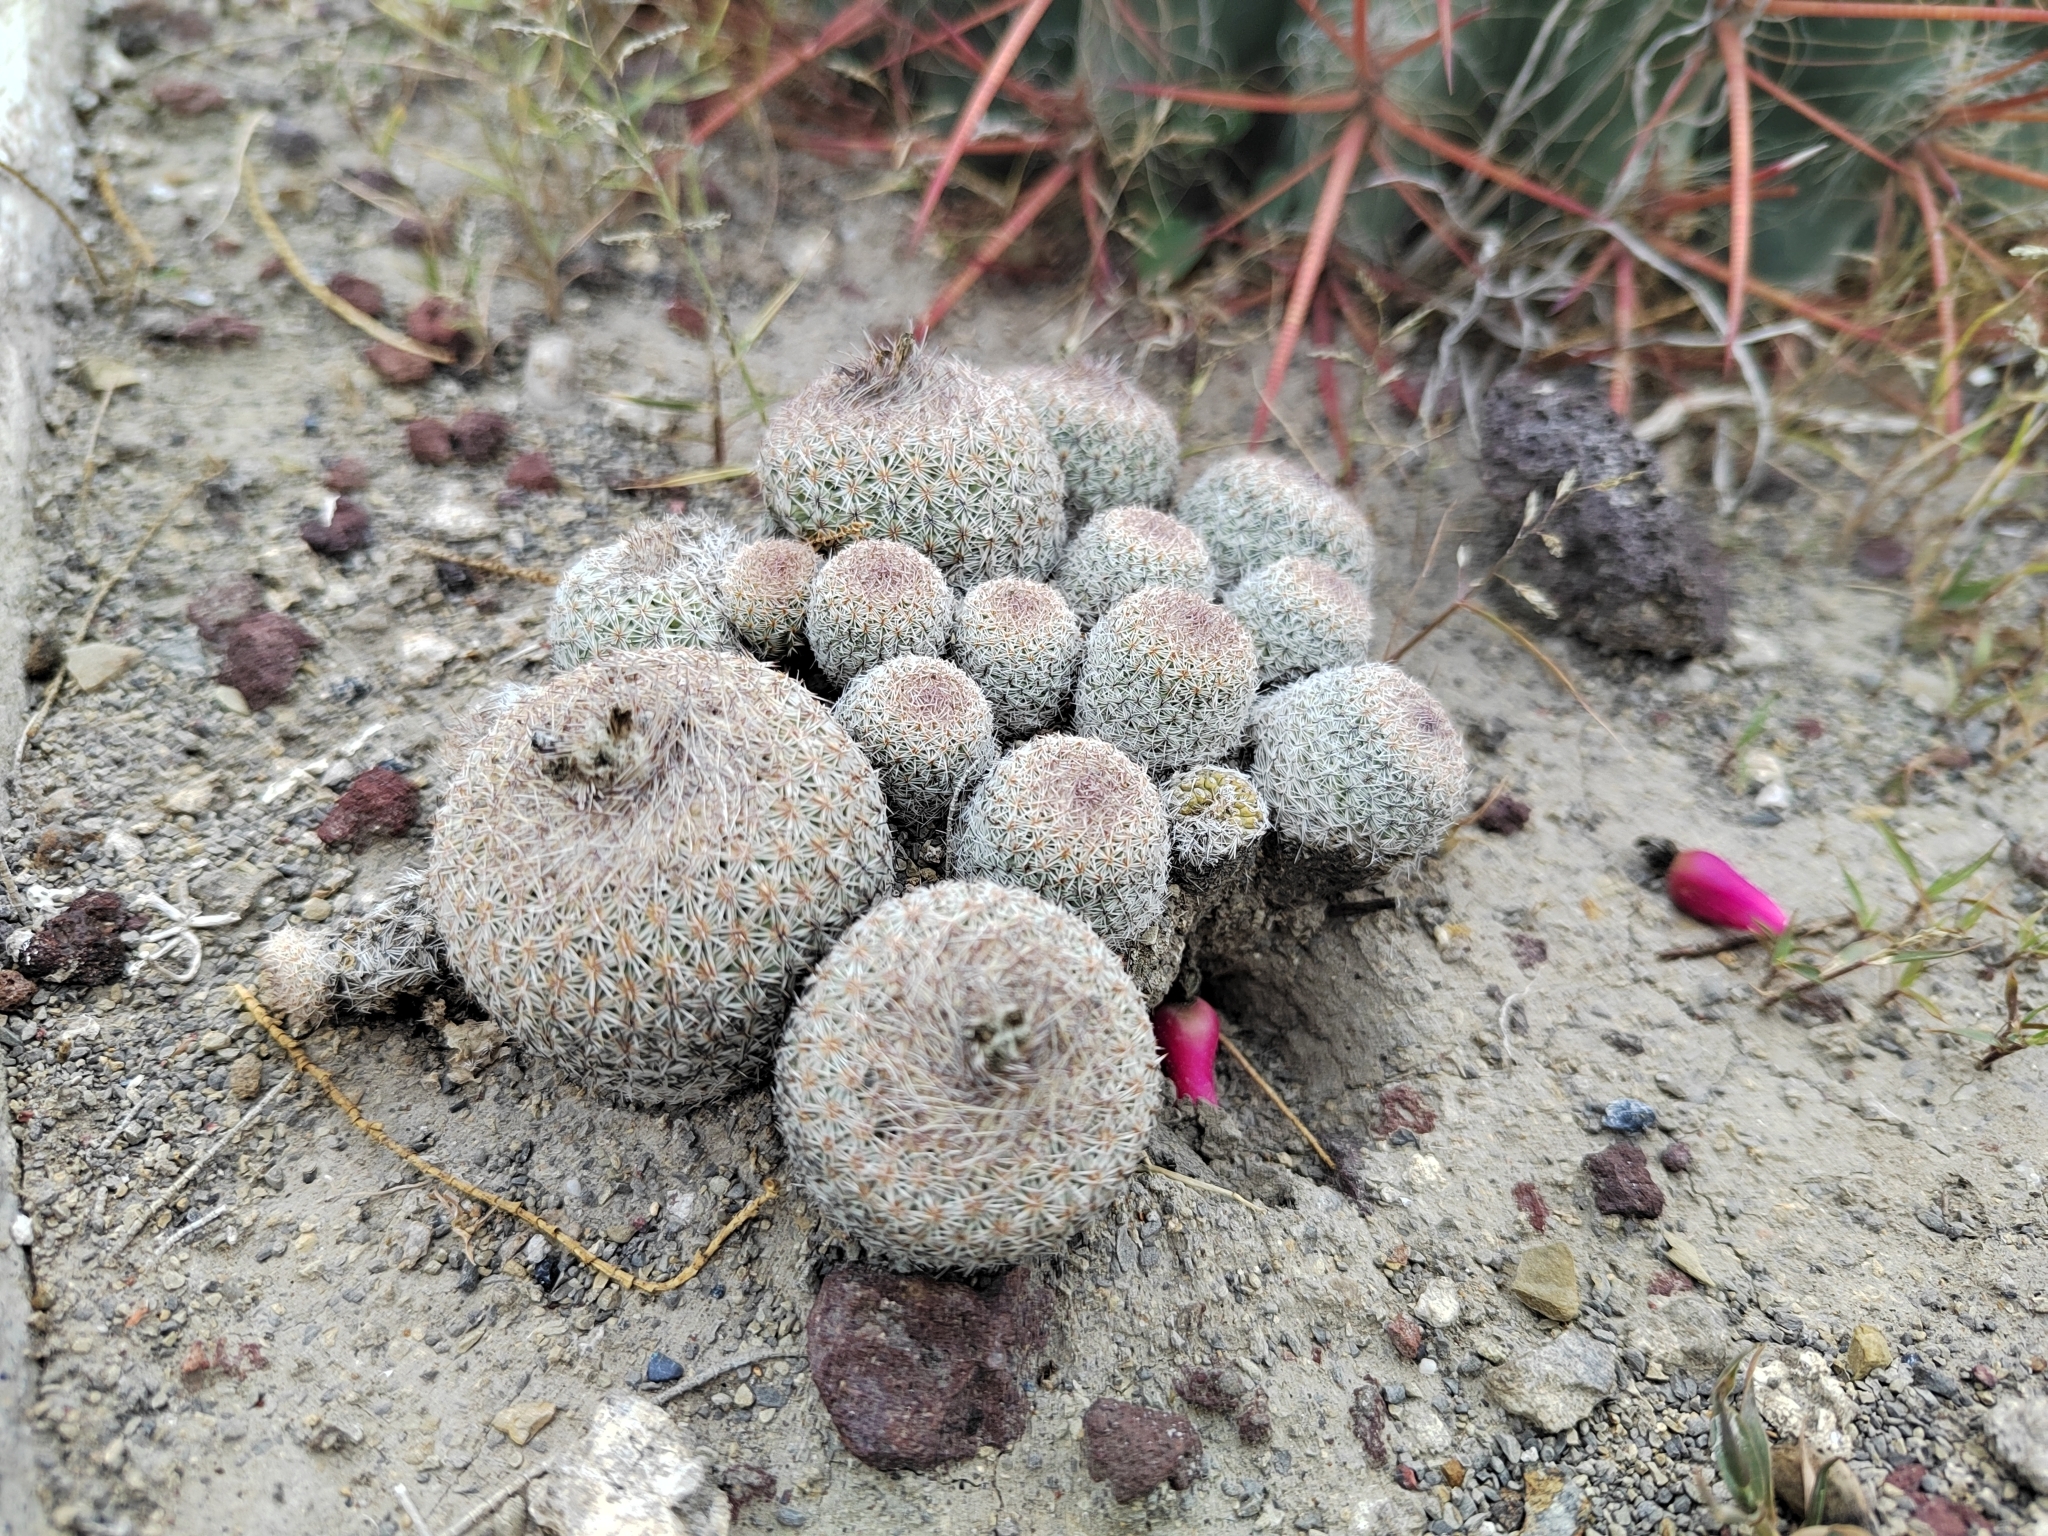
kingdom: Plantae
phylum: Tracheophyta
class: Magnoliopsida
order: Caryophyllales
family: Cactaceae
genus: Epithelantha
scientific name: Epithelantha greggii
